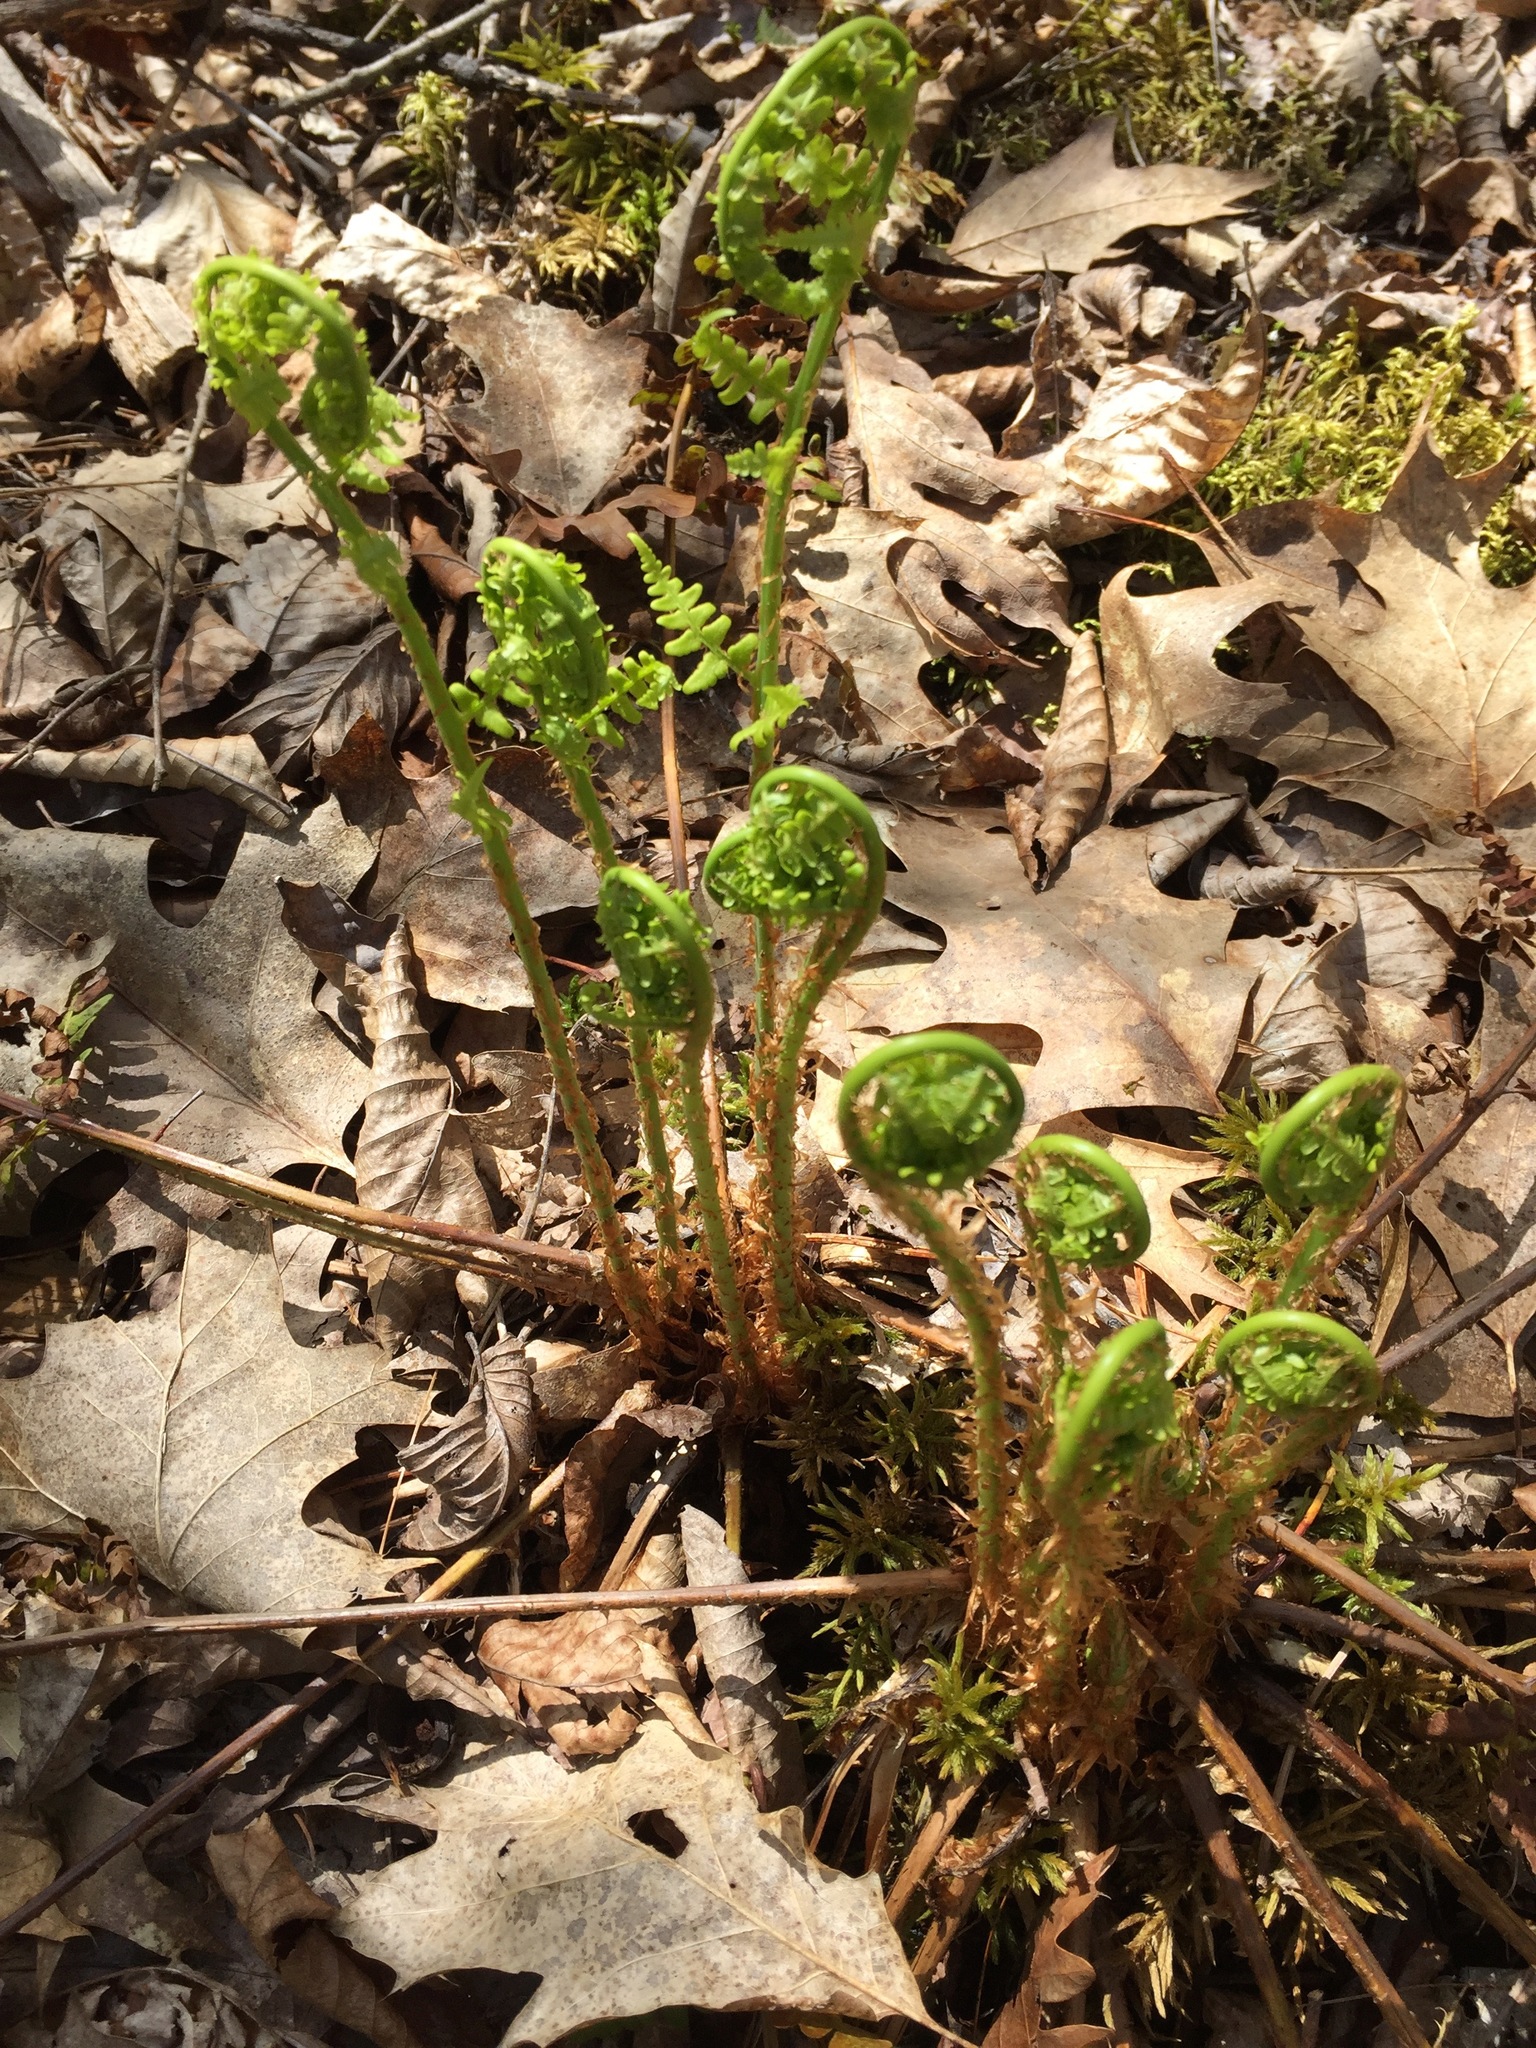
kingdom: Plantae
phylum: Tracheophyta
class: Polypodiopsida
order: Polypodiales
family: Dryopteridaceae
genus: Dryopteris
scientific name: Dryopteris marginalis
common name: Marginal wood fern
